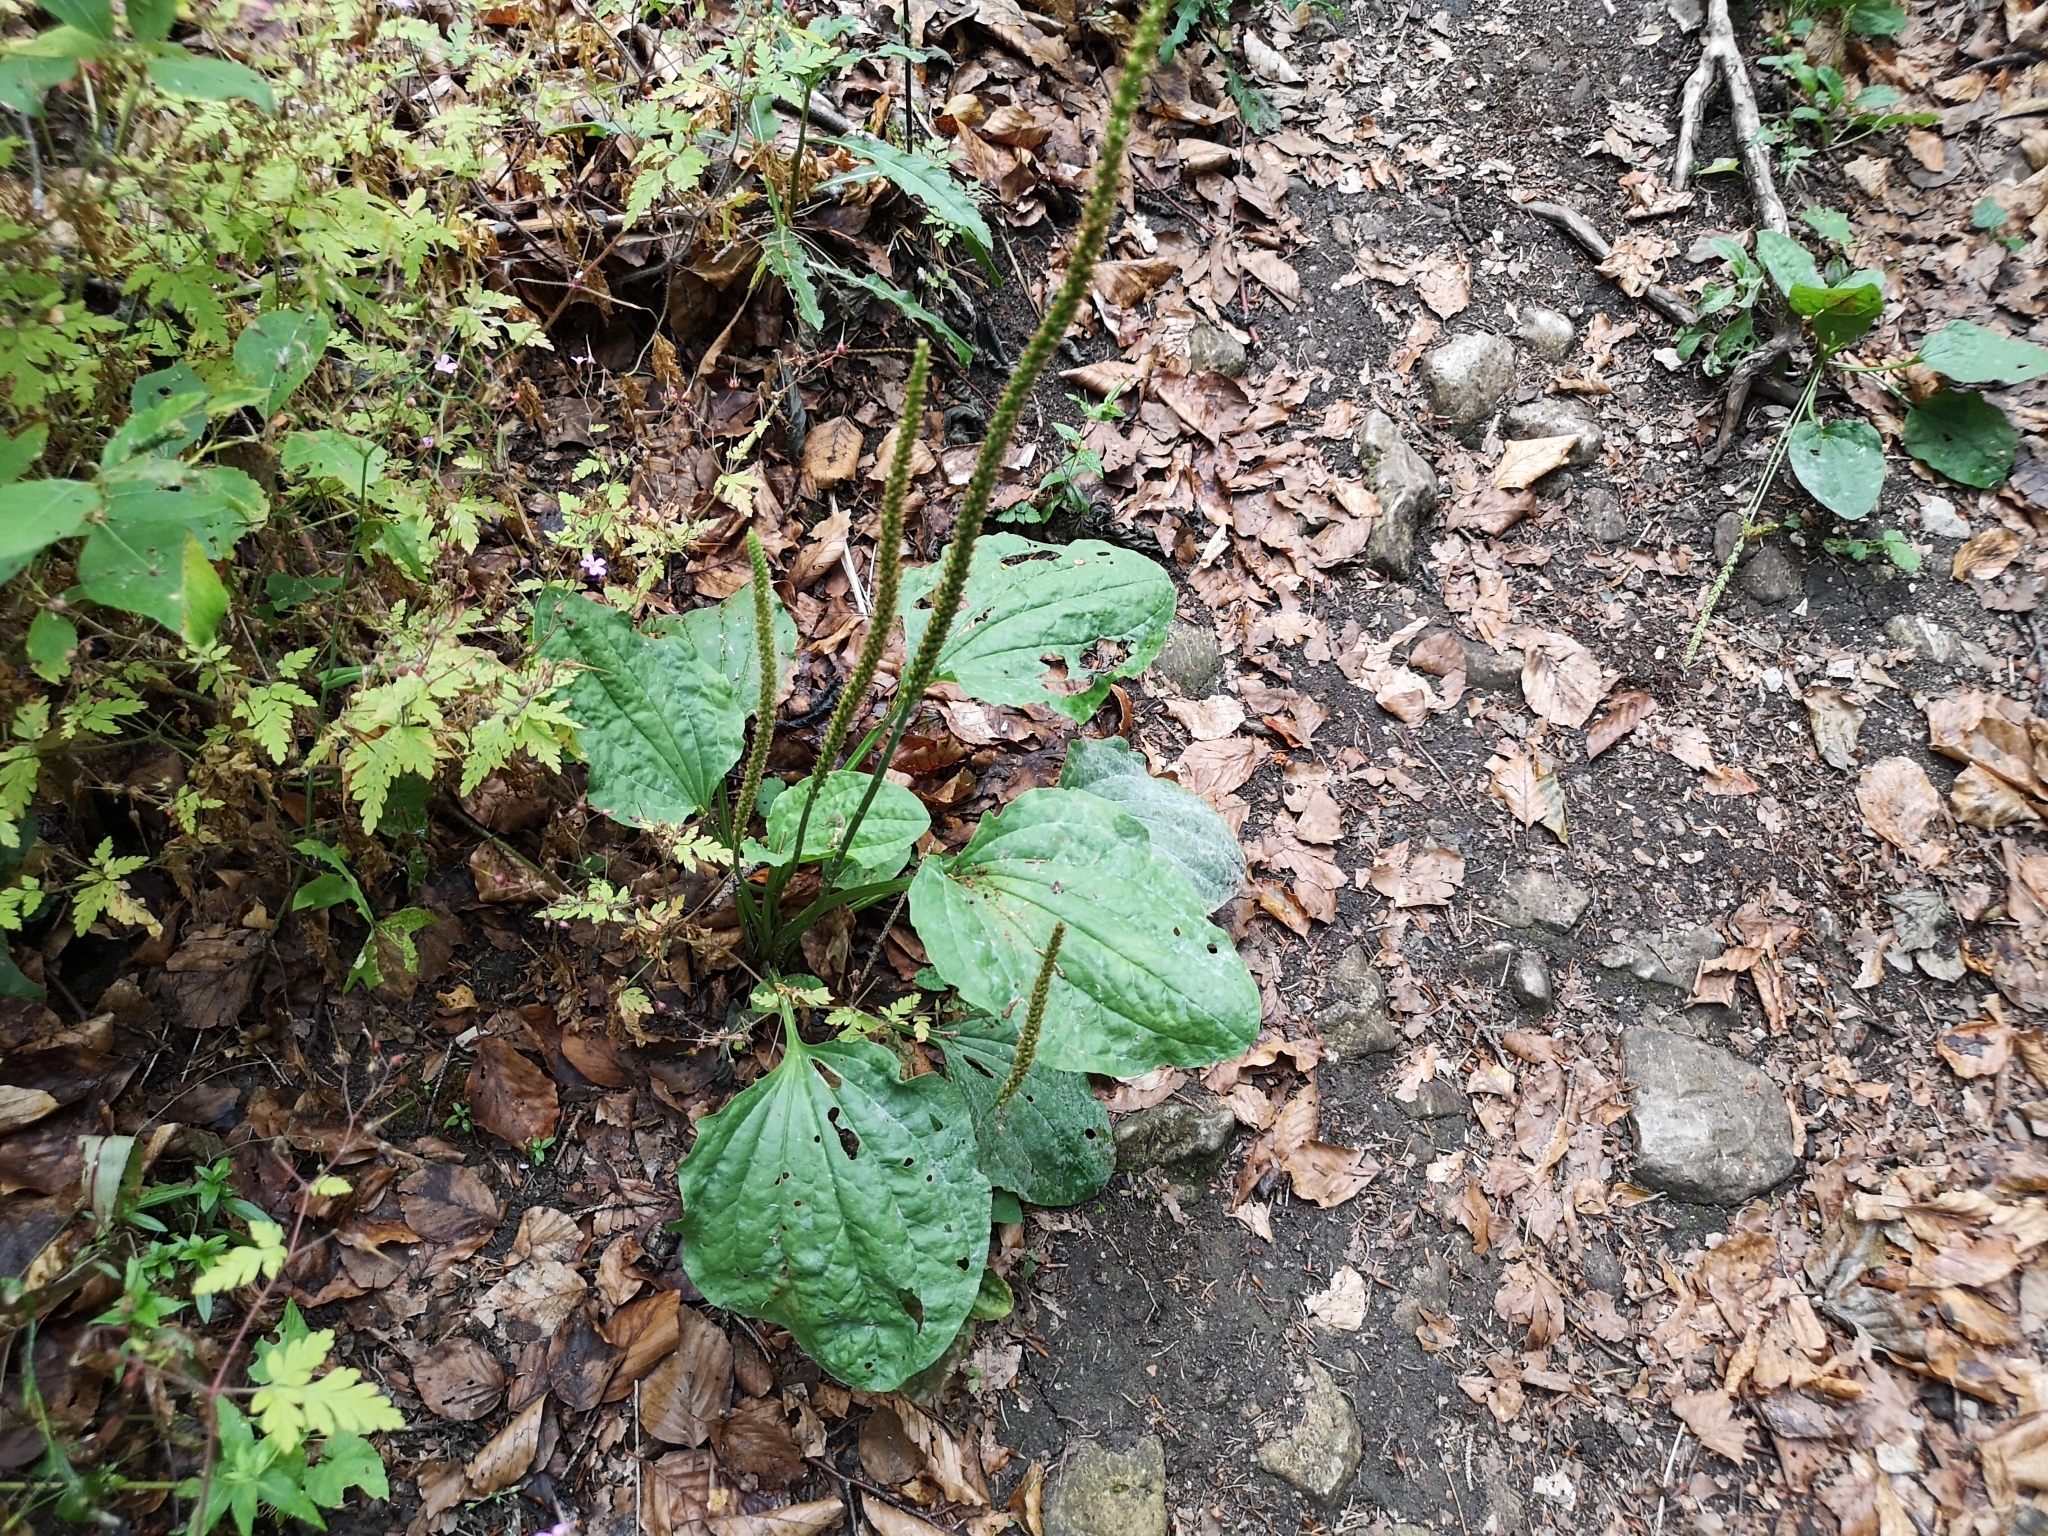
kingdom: Plantae
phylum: Tracheophyta
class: Magnoliopsida
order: Lamiales
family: Plantaginaceae
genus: Plantago
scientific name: Plantago major
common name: Common plantain
